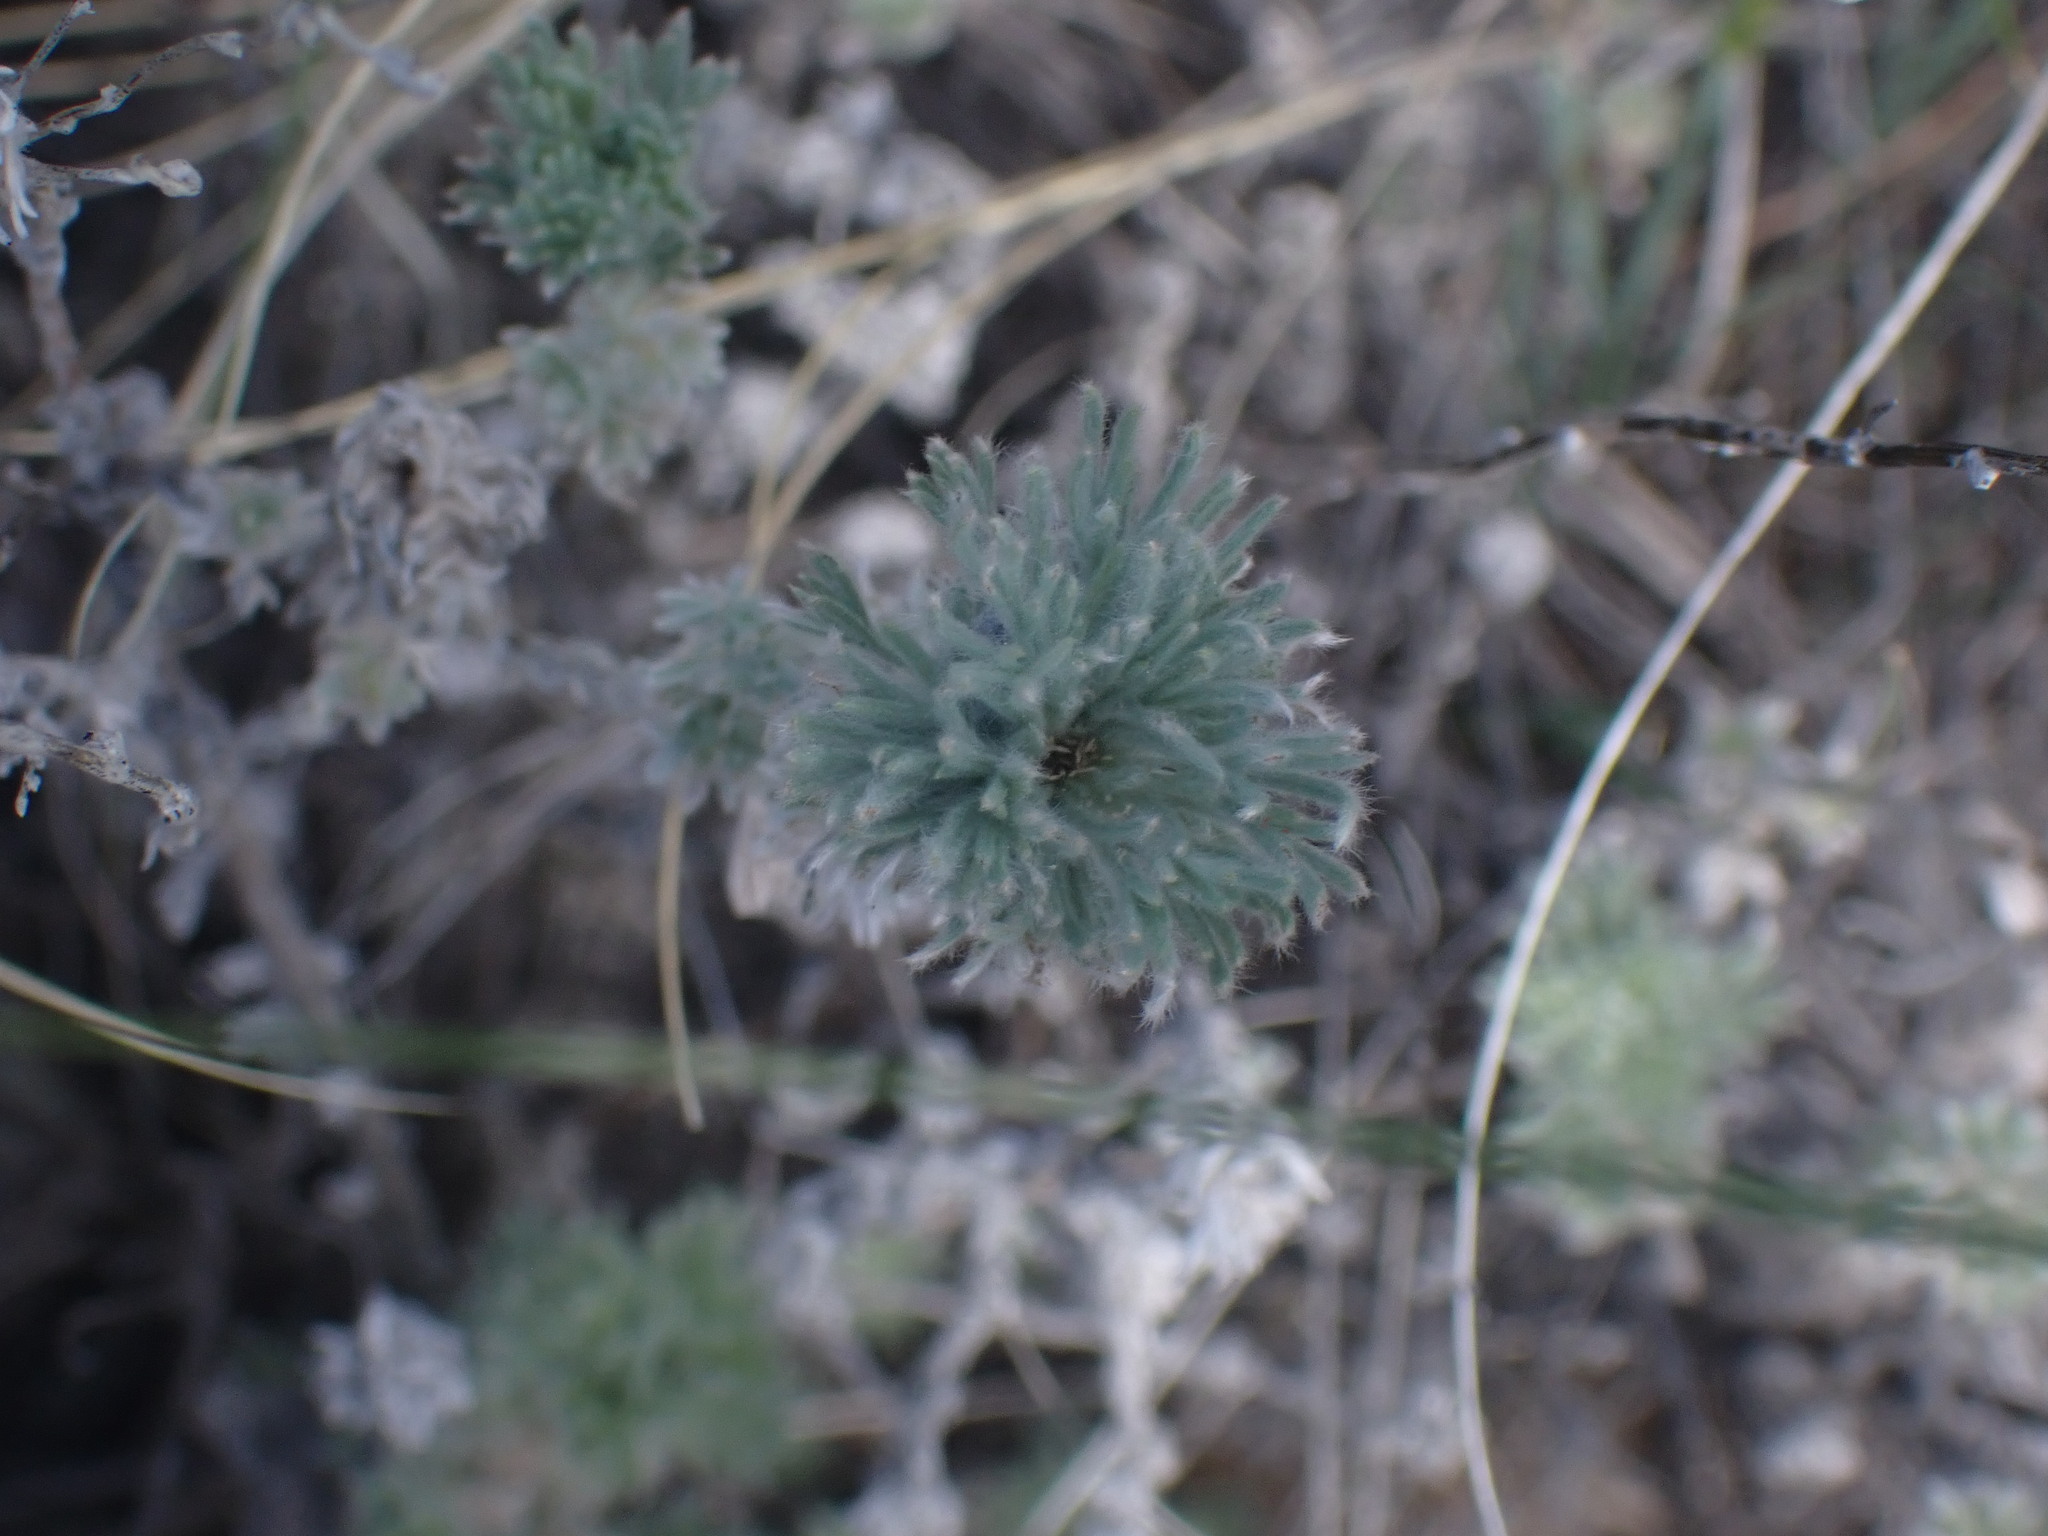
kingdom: Plantae
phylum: Tracheophyta
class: Magnoliopsida
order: Asterales
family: Asteraceae
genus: Artemisia
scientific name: Artemisia frigida
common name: Prairie sagewort
